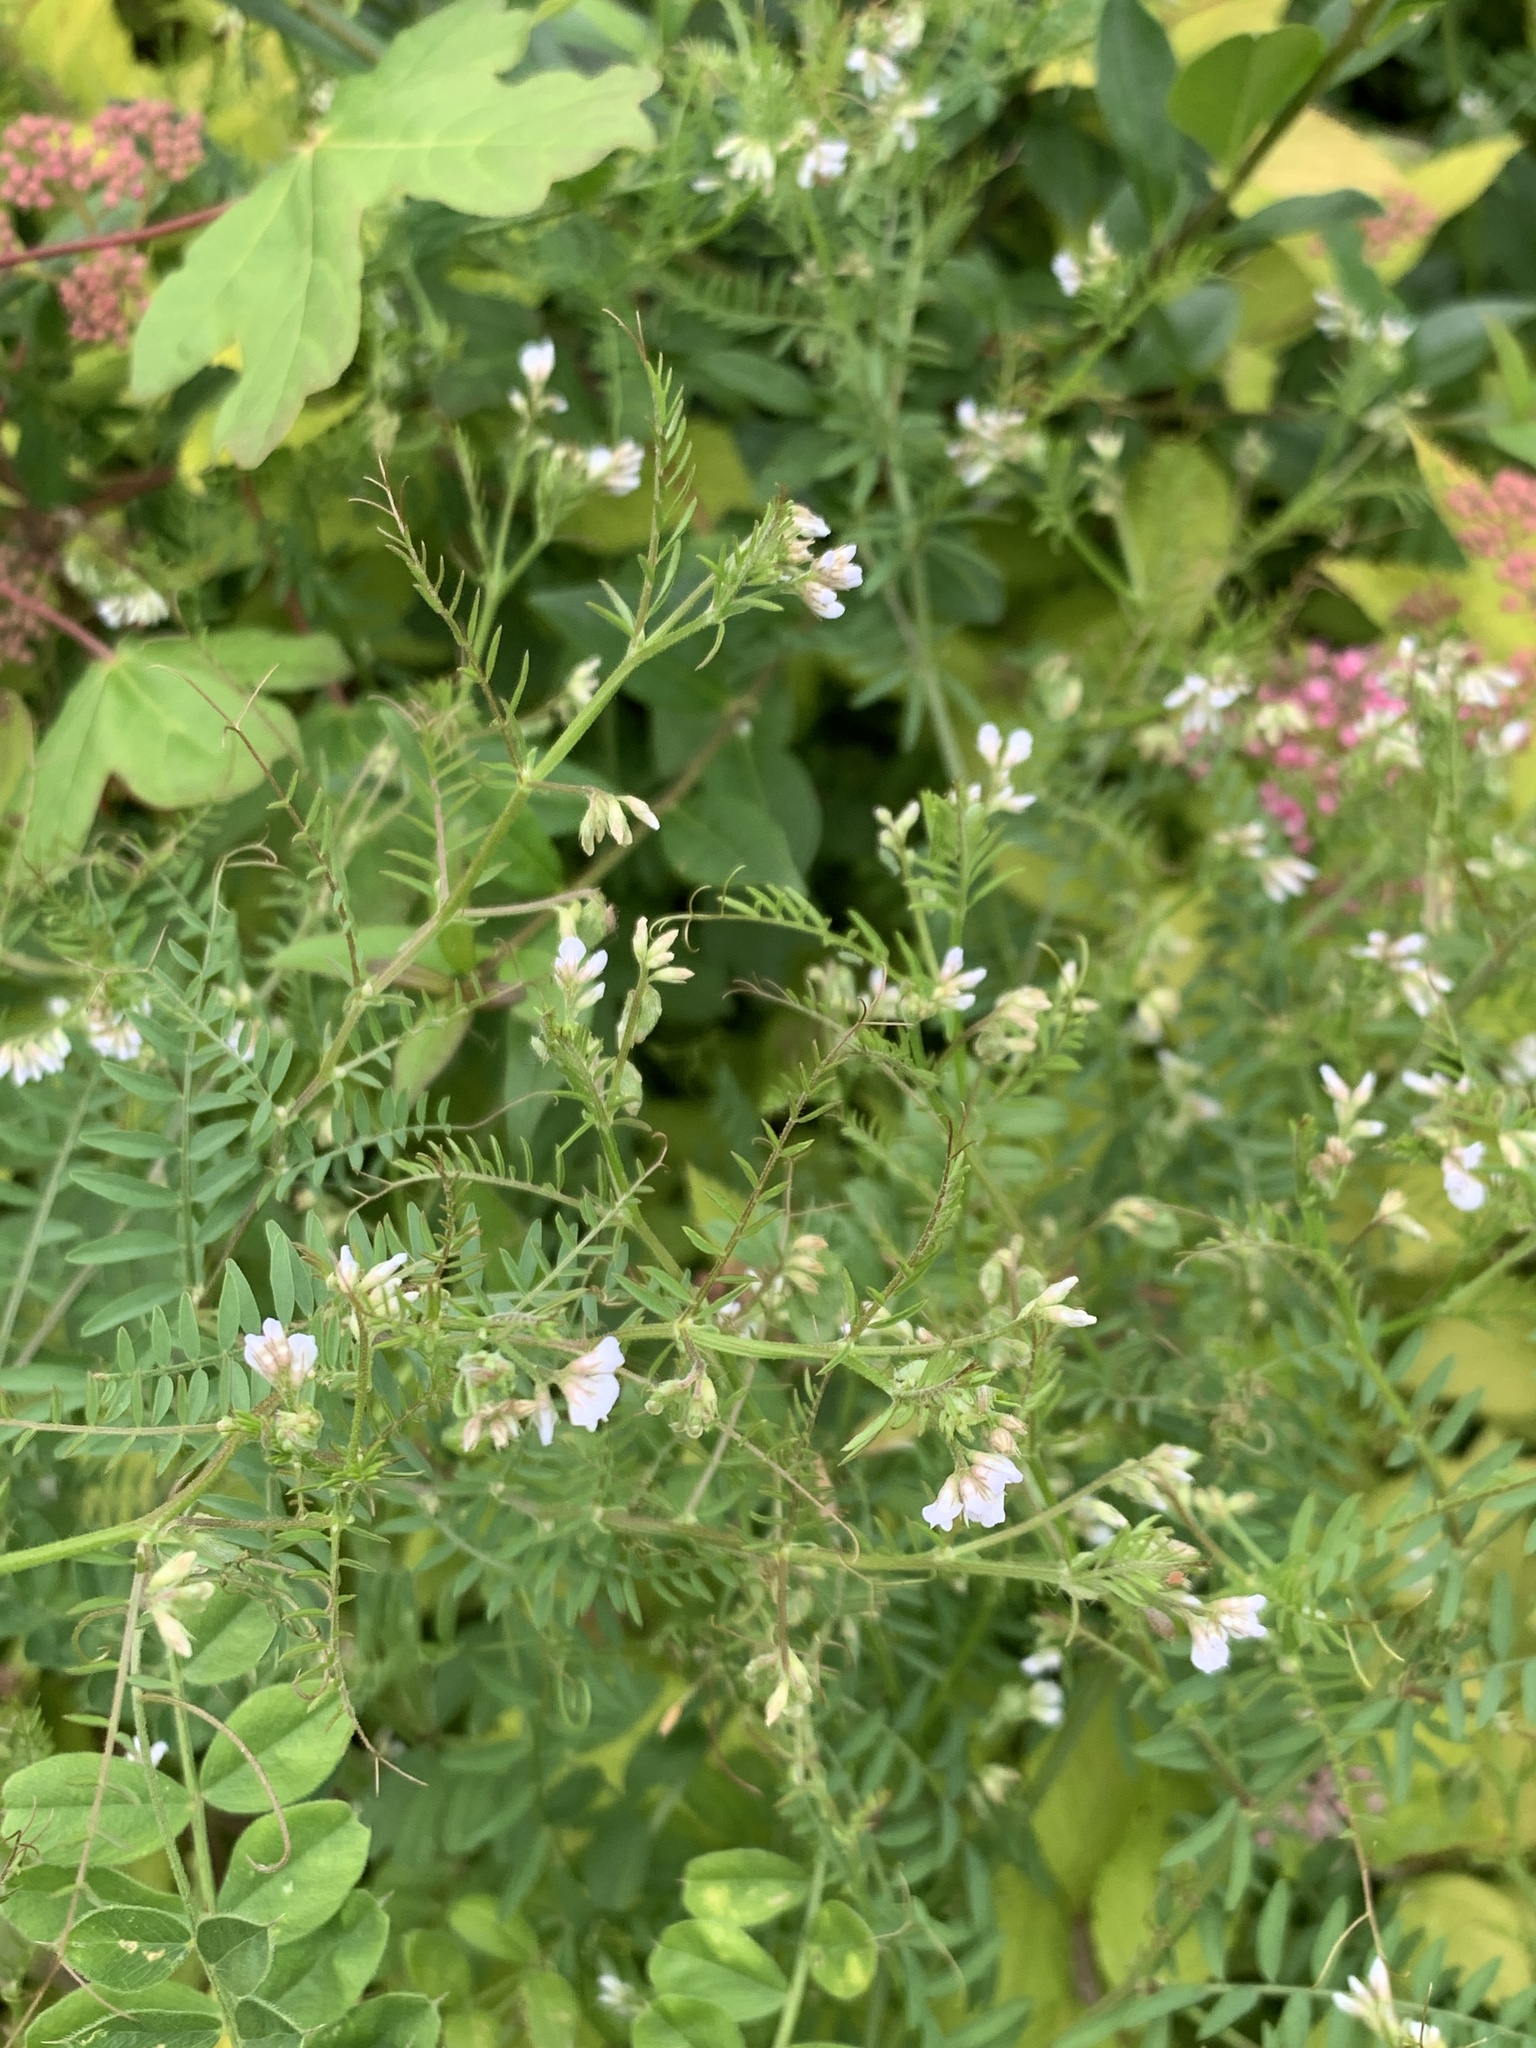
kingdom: Plantae
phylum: Tracheophyta
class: Magnoliopsida
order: Fabales
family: Fabaceae
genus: Vicia
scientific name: Vicia hirsuta
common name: Tiny vetch
